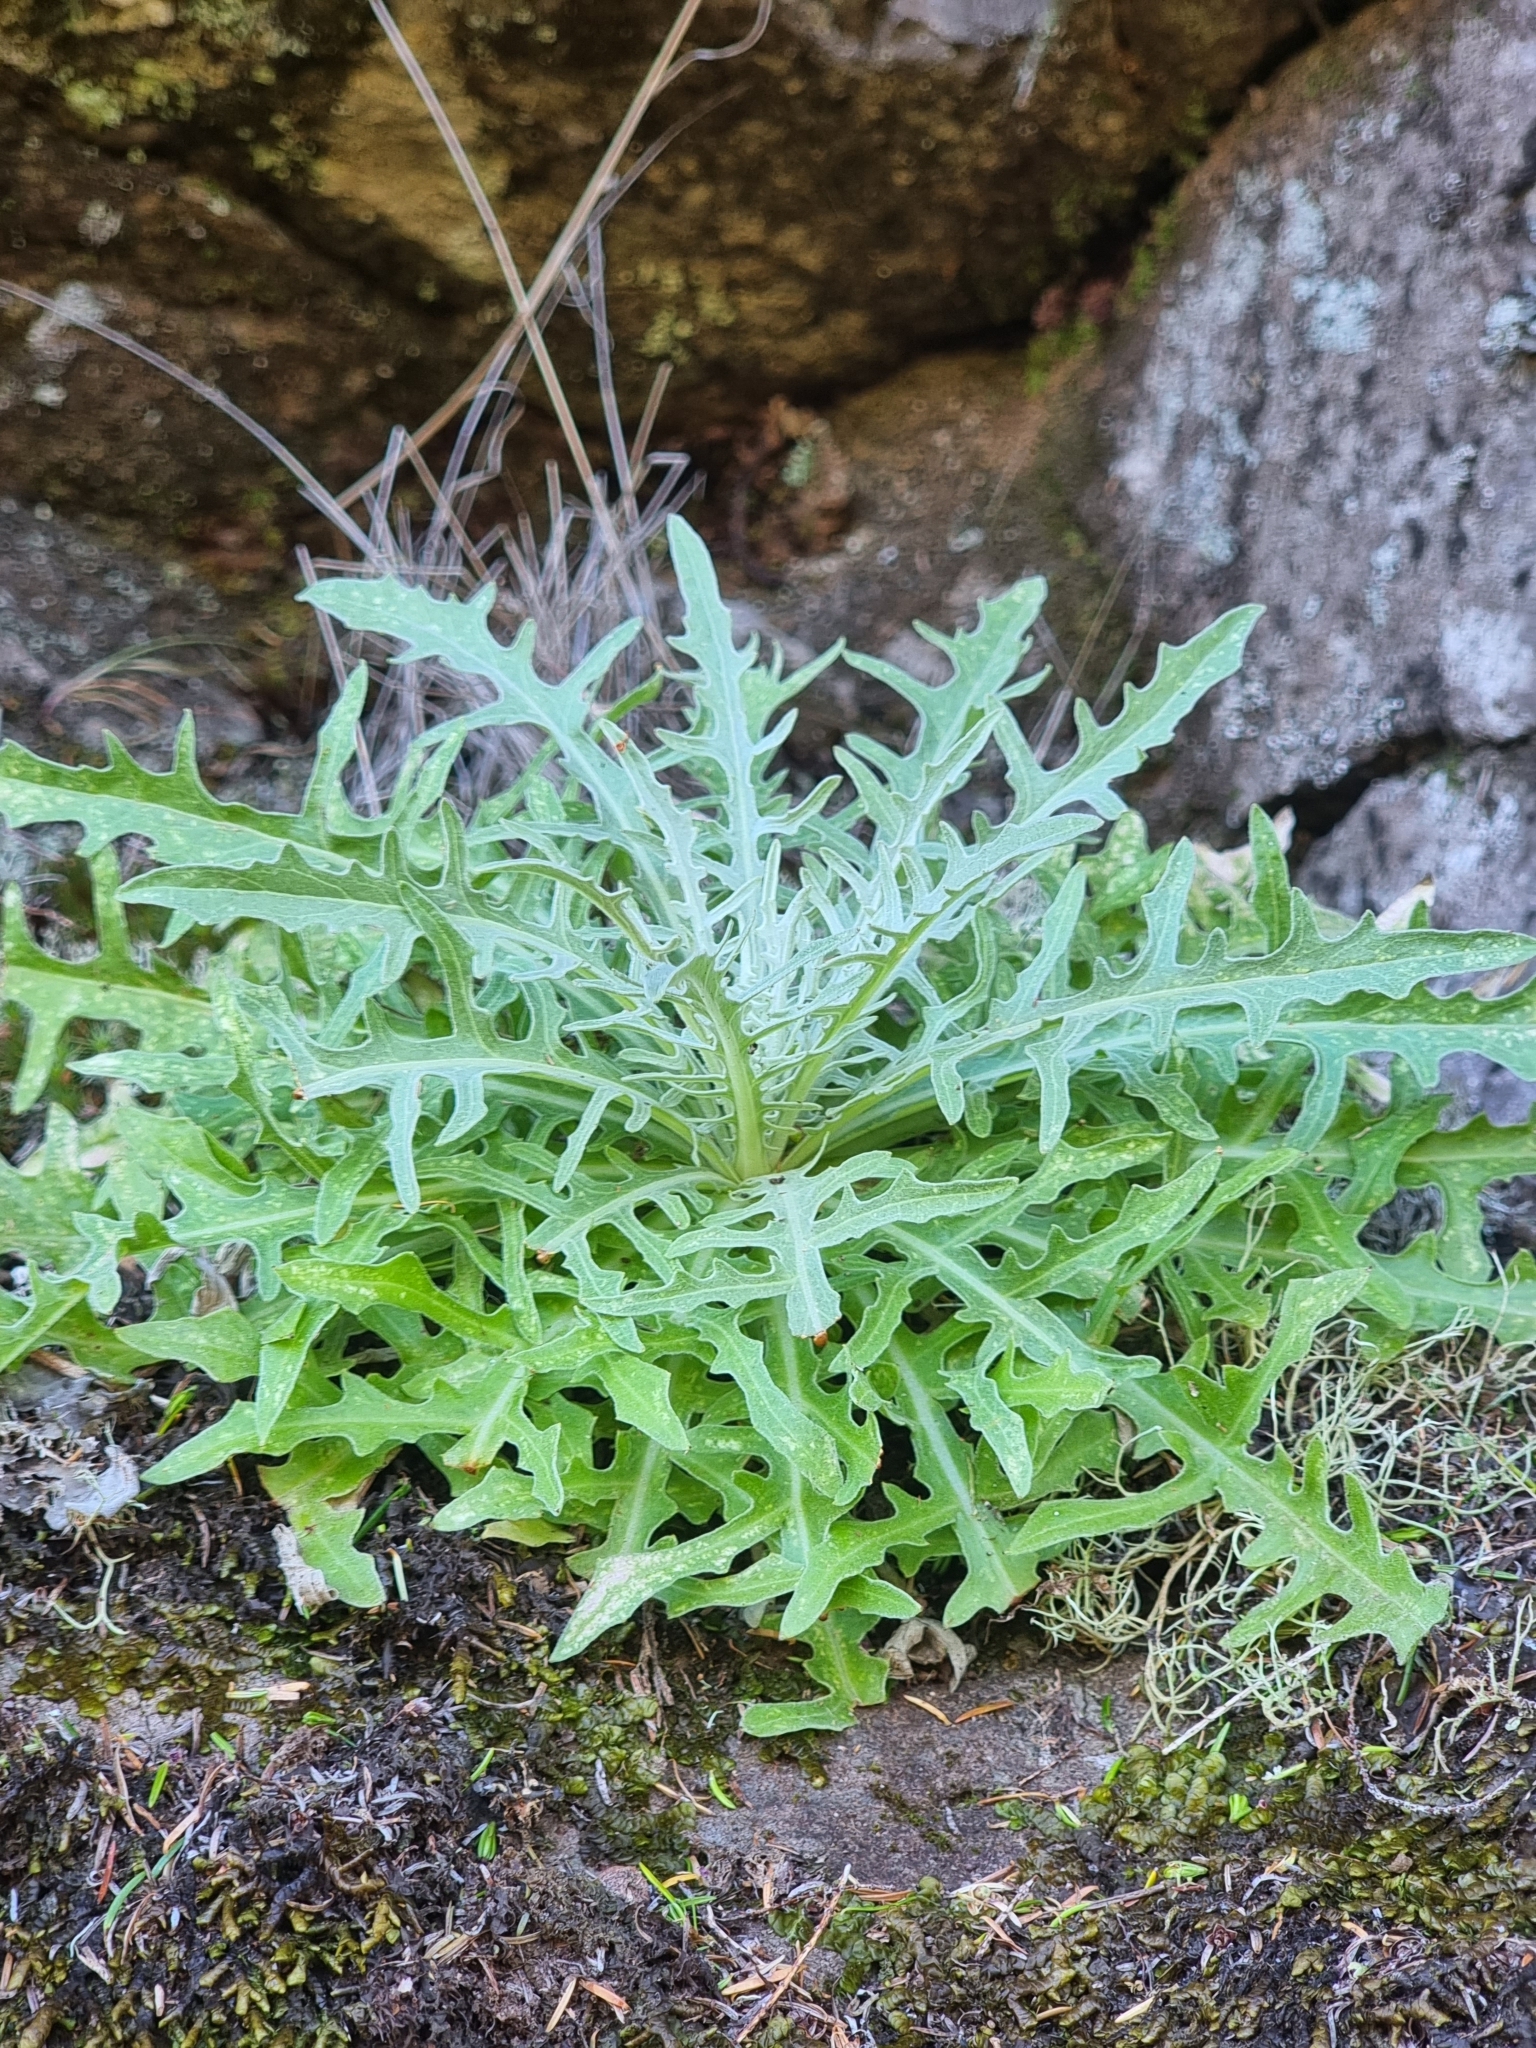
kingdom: Plantae
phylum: Tracheophyta
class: Magnoliopsida
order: Asterales
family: Asteraceae
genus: Andryala
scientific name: Andryala glandulosa
